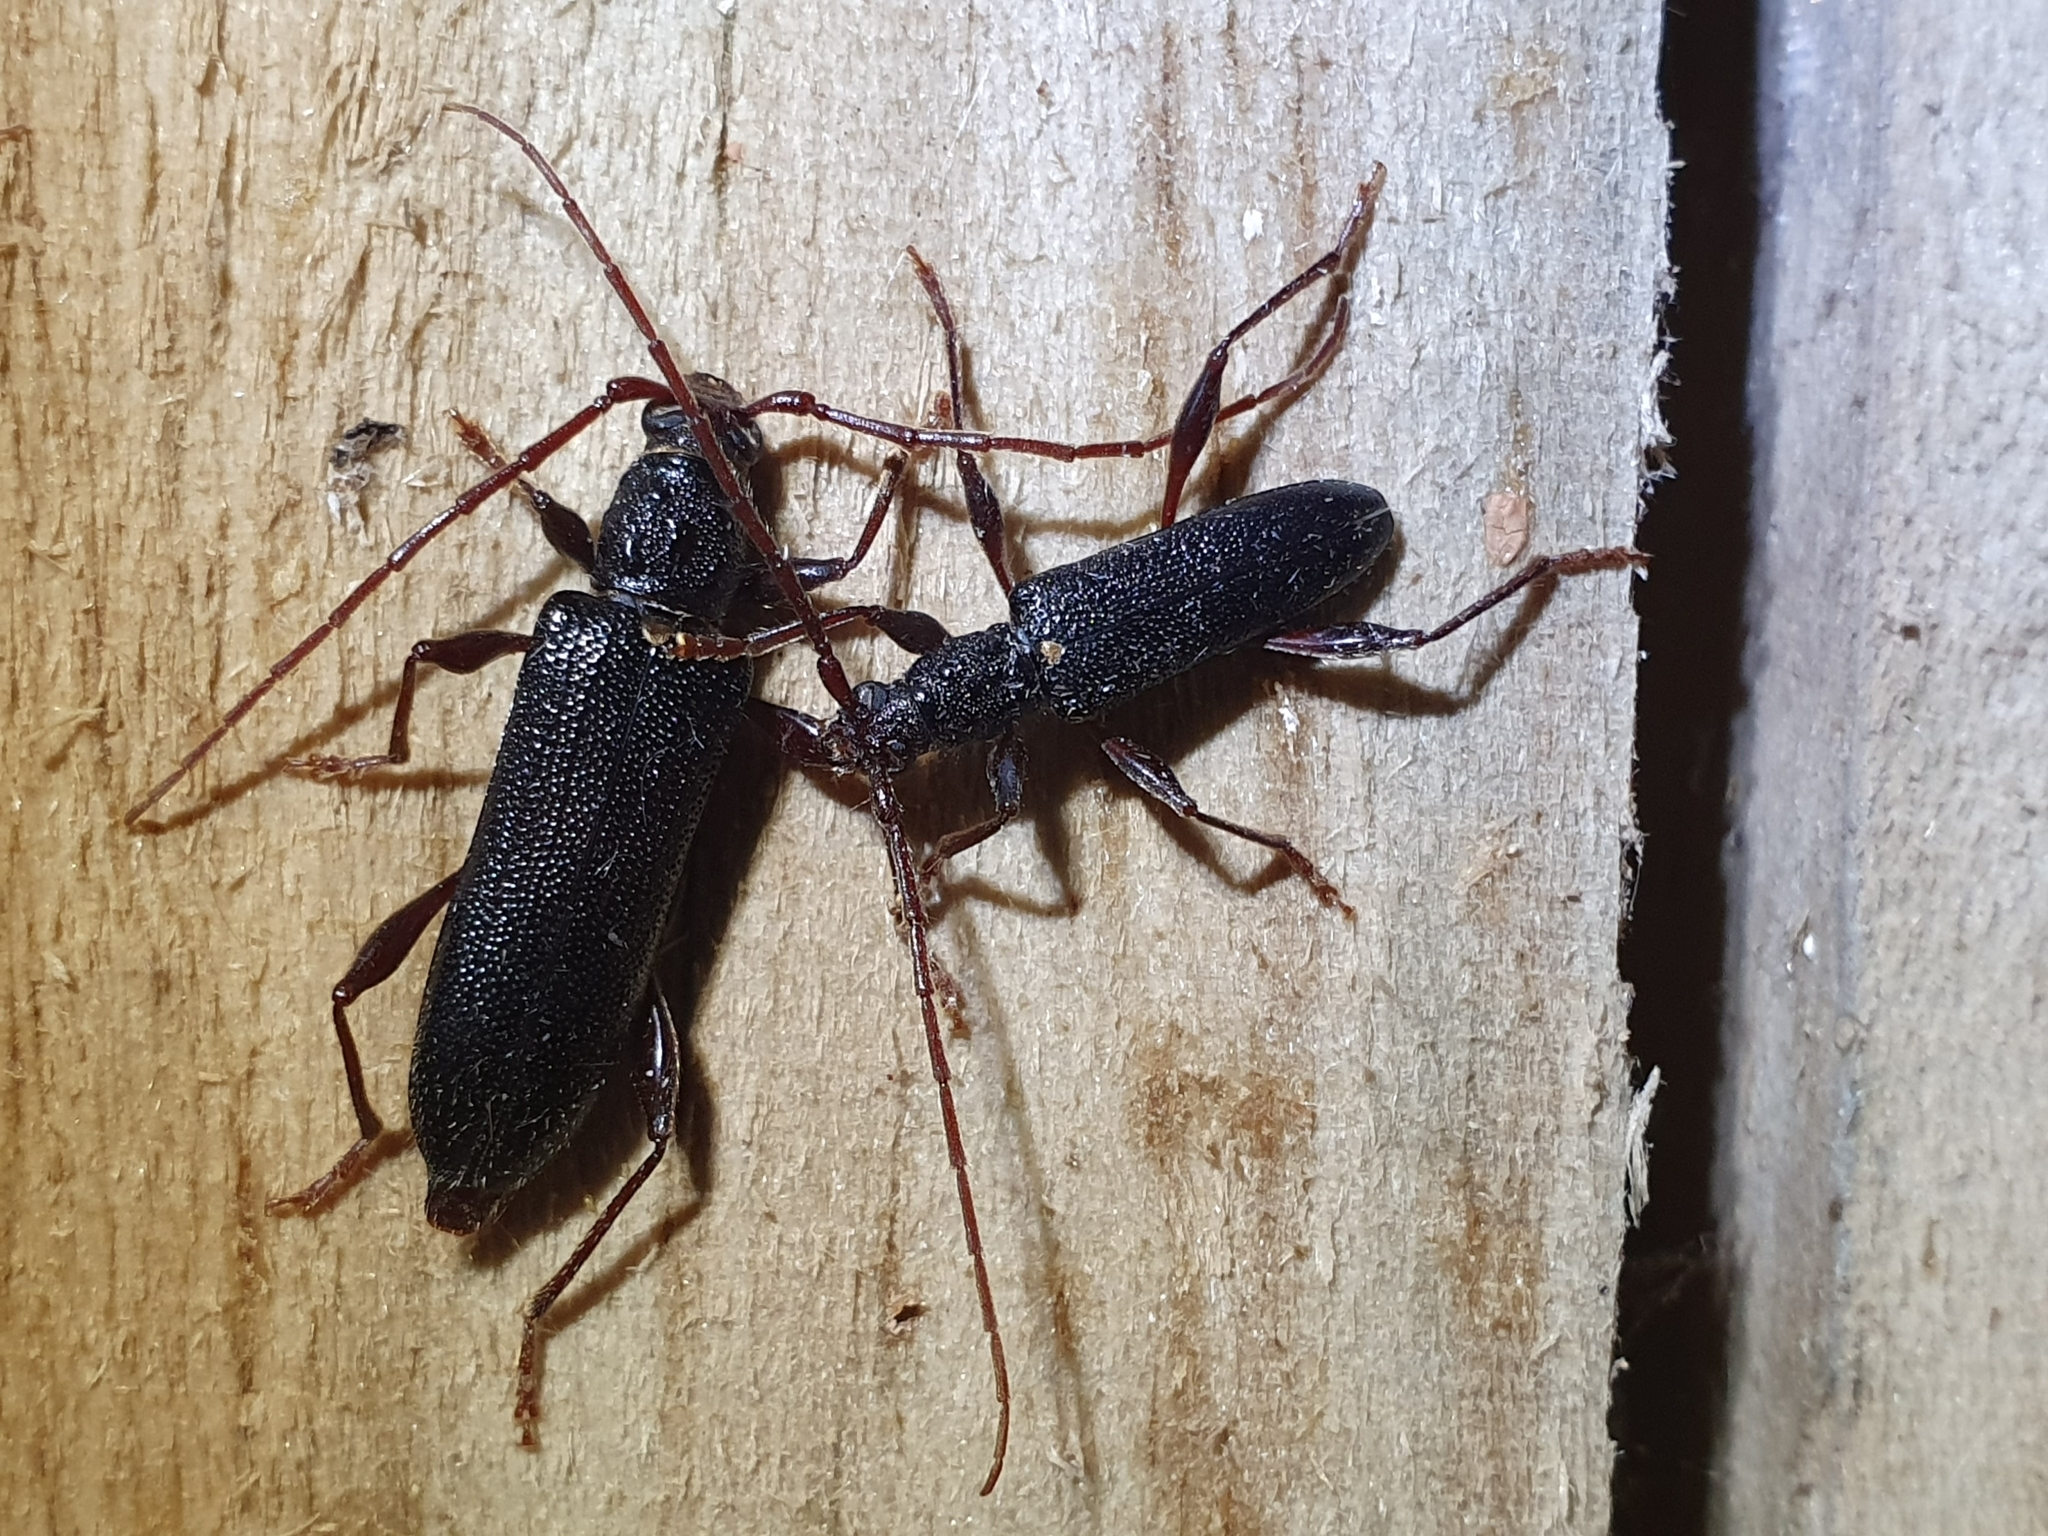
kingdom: Animalia
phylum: Arthropoda
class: Insecta
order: Coleoptera
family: Cerambycidae
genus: Callidiopis
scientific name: Callidiopis scutellaris
